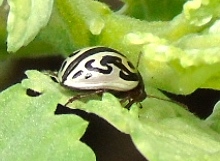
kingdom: Animalia
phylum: Arthropoda
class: Insecta
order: Coleoptera
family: Chrysomelidae
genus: Calligrapha
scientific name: Calligrapha
